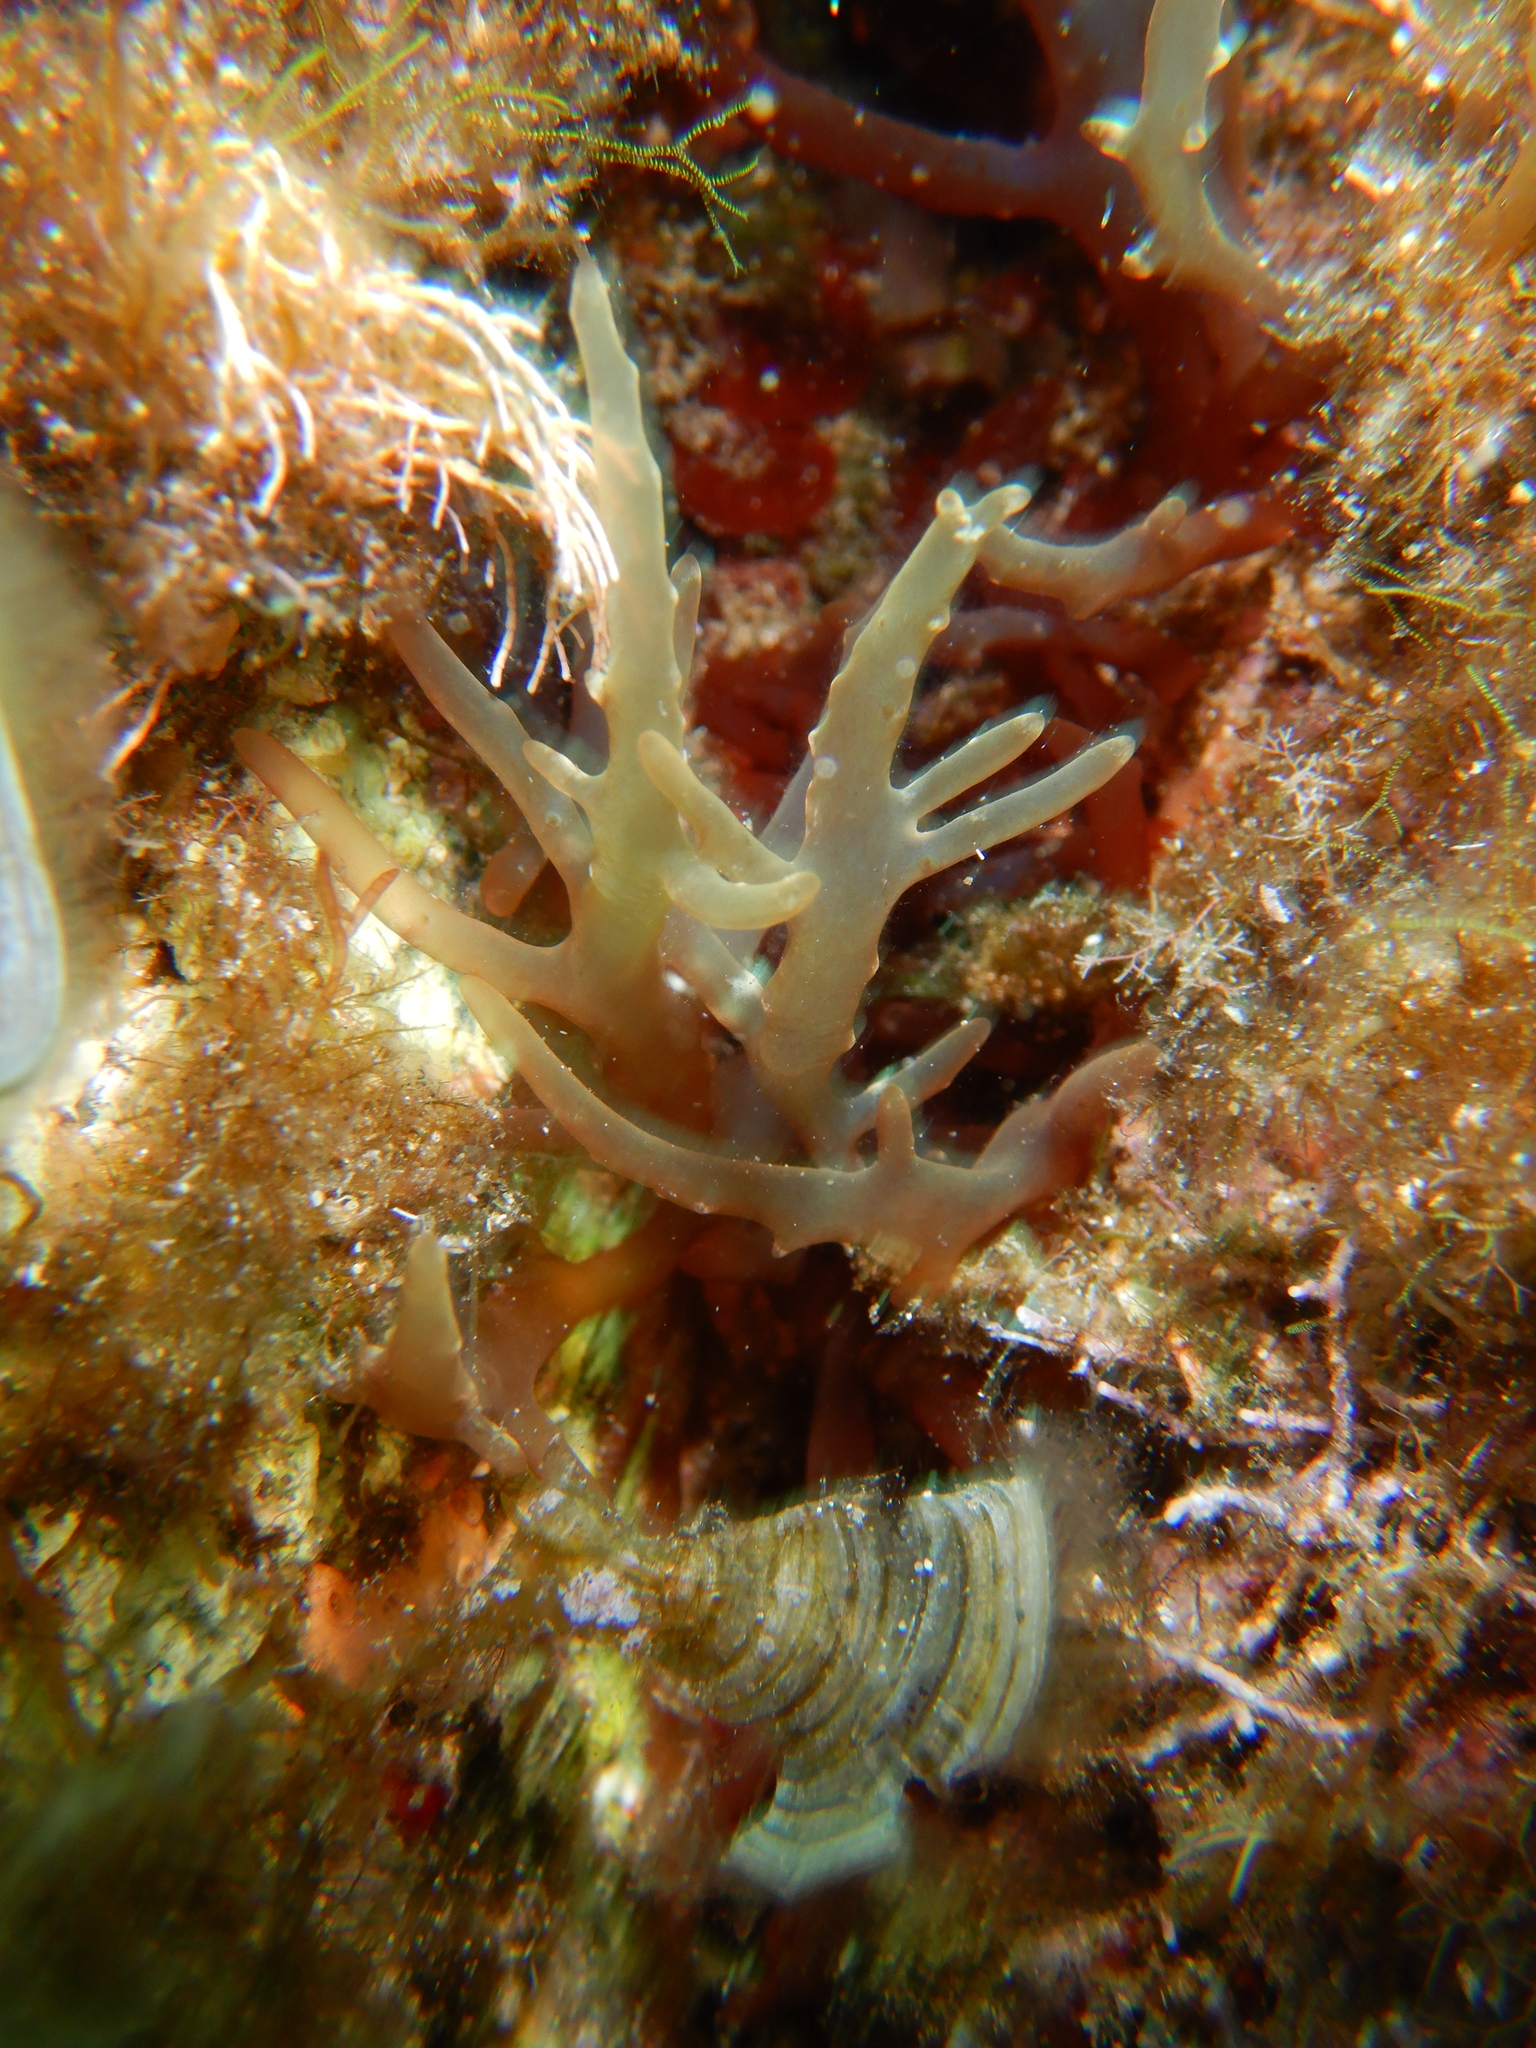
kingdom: Plantae
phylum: Rhodophyta
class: Florideophyceae
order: Rhodymeniales
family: Rhodymeniaceae
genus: Chrysymenia
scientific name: Chrysymenia ventricosa
